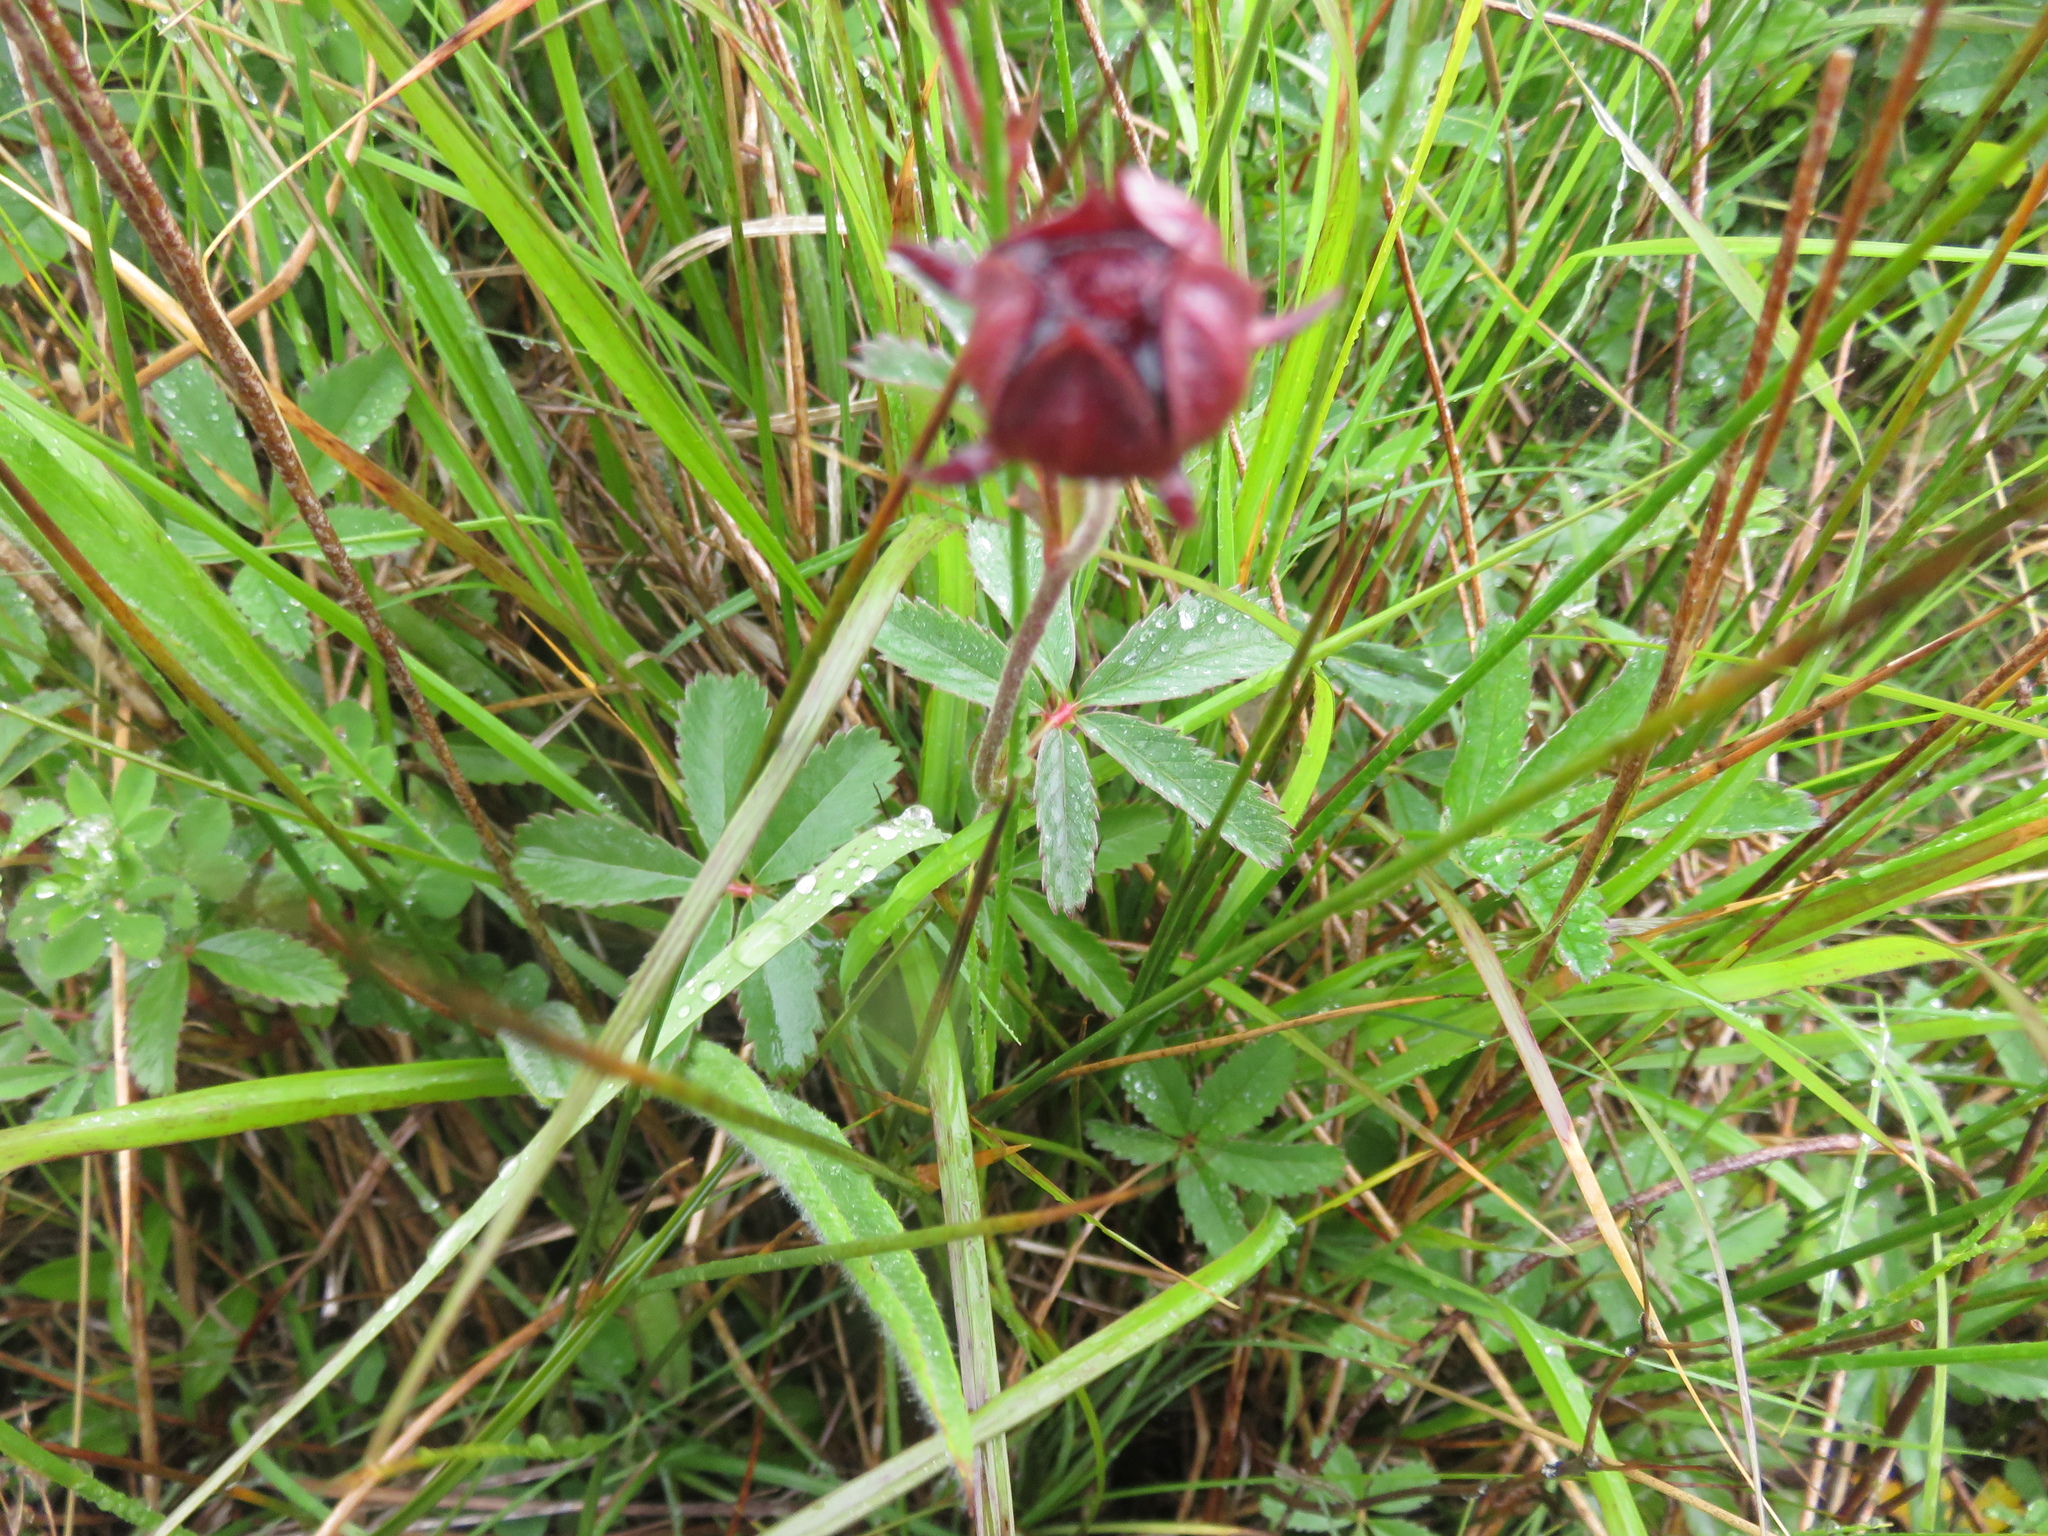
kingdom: Plantae
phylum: Tracheophyta
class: Magnoliopsida
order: Rosales
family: Rosaceae
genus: Comarum
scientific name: Comarum palustre
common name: Marsh cinquefoil
